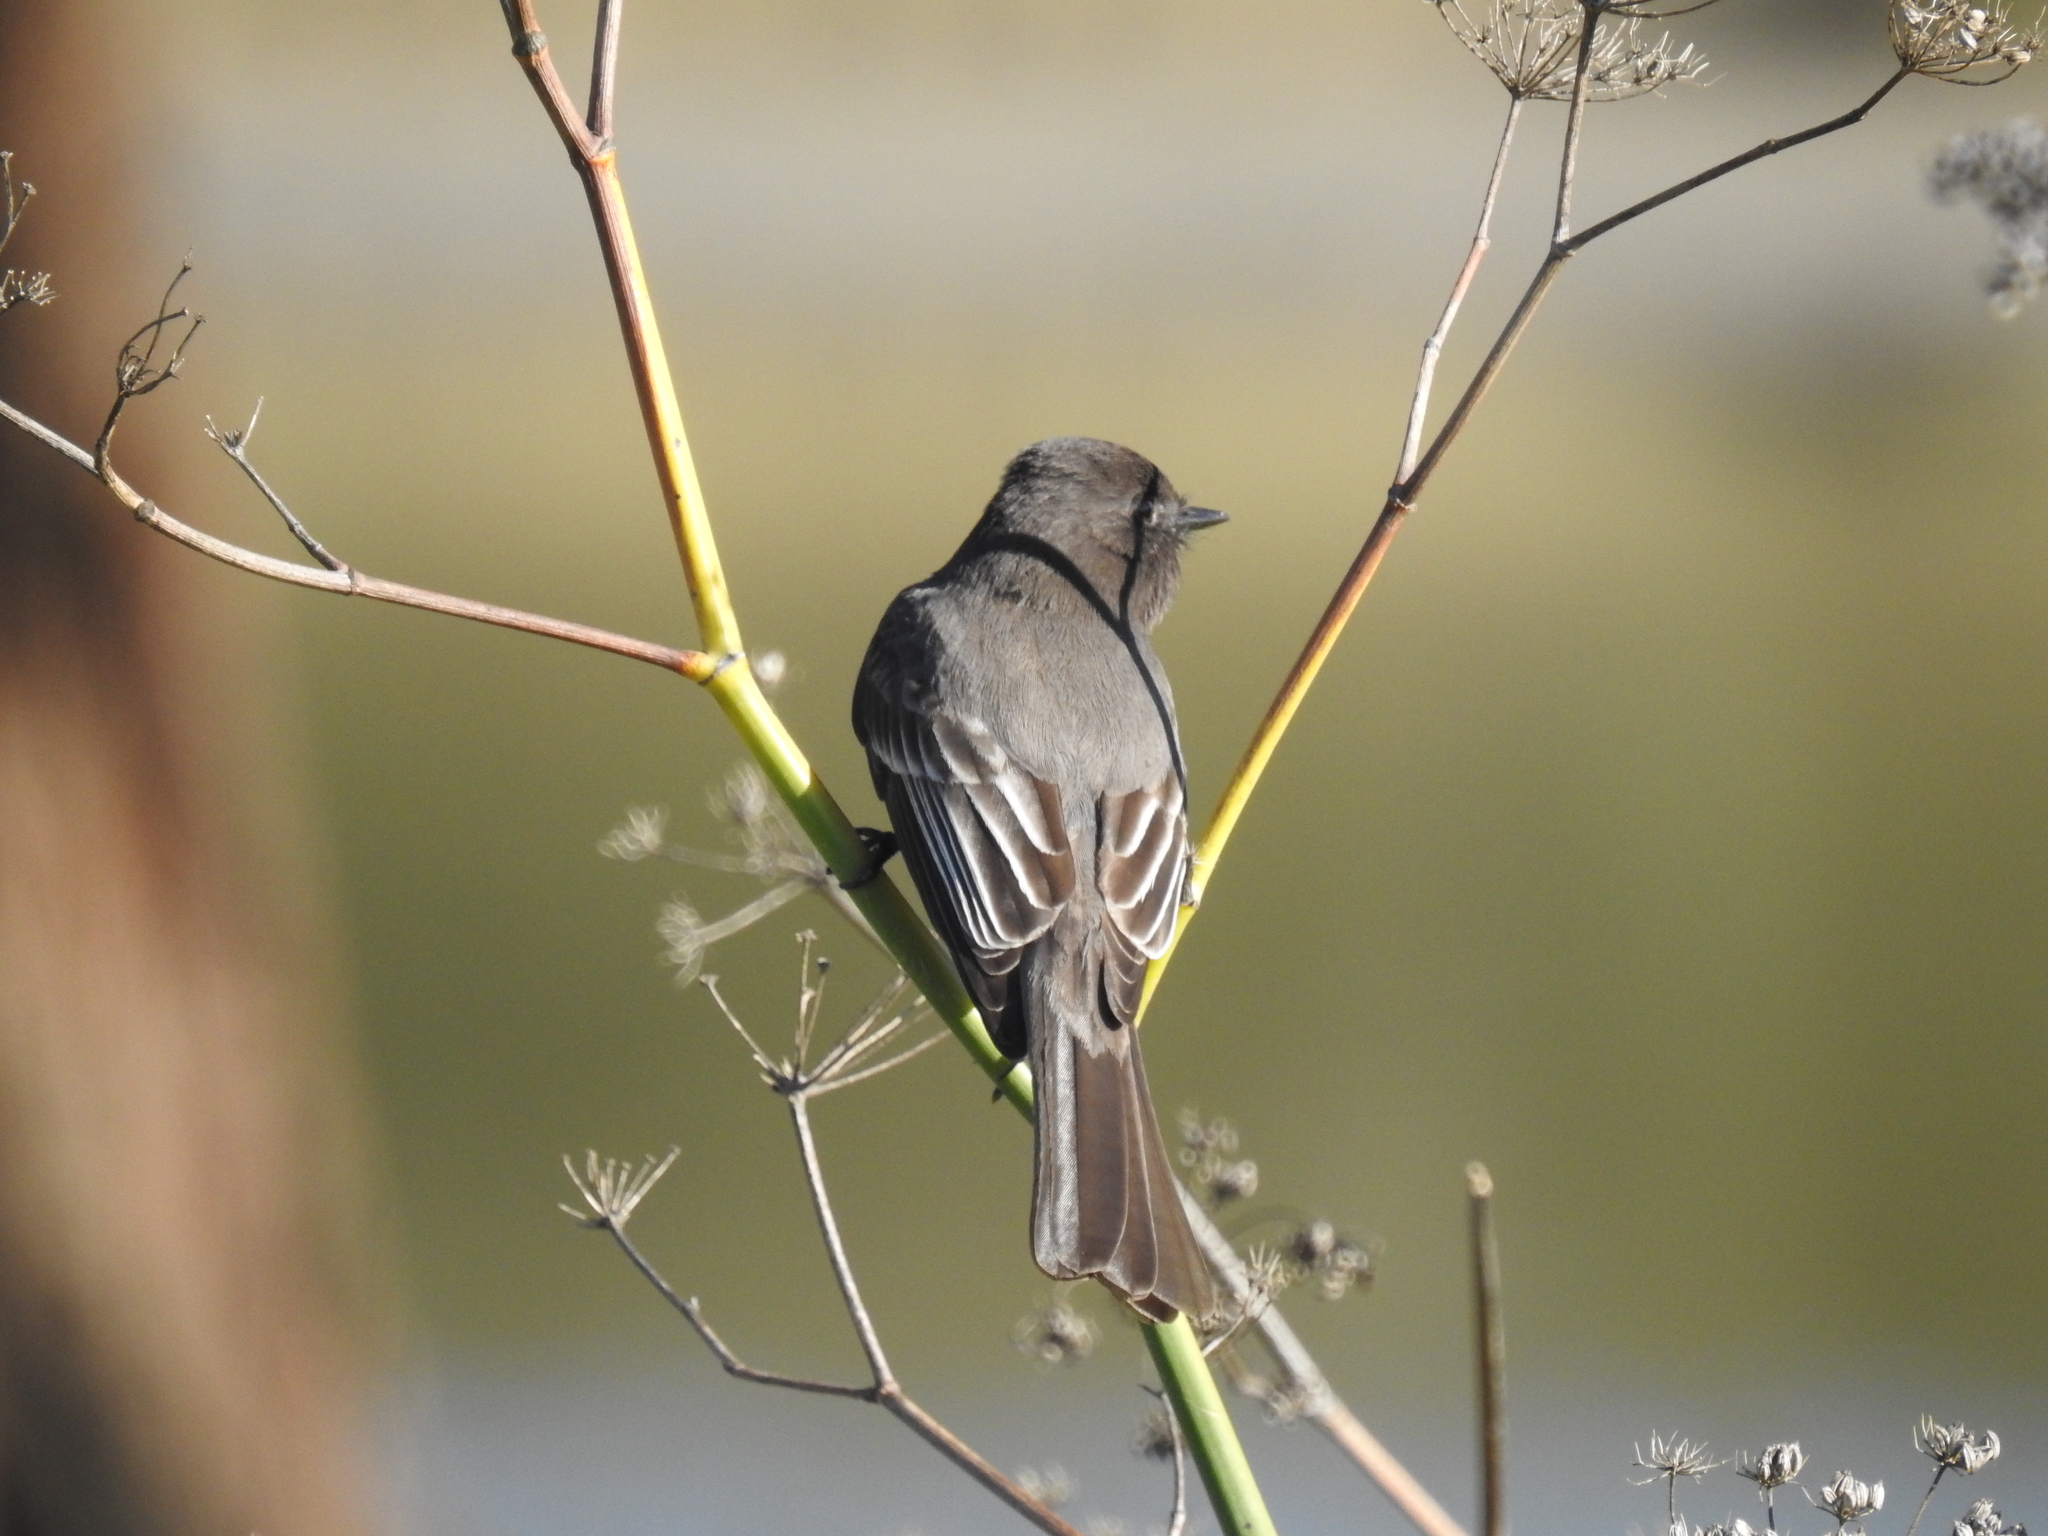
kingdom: Animalia
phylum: Chordata
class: Aves
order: Passeriformes
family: Tyrannidae
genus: Sayornis
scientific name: Sayornis nigricans
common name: Black phoebe
